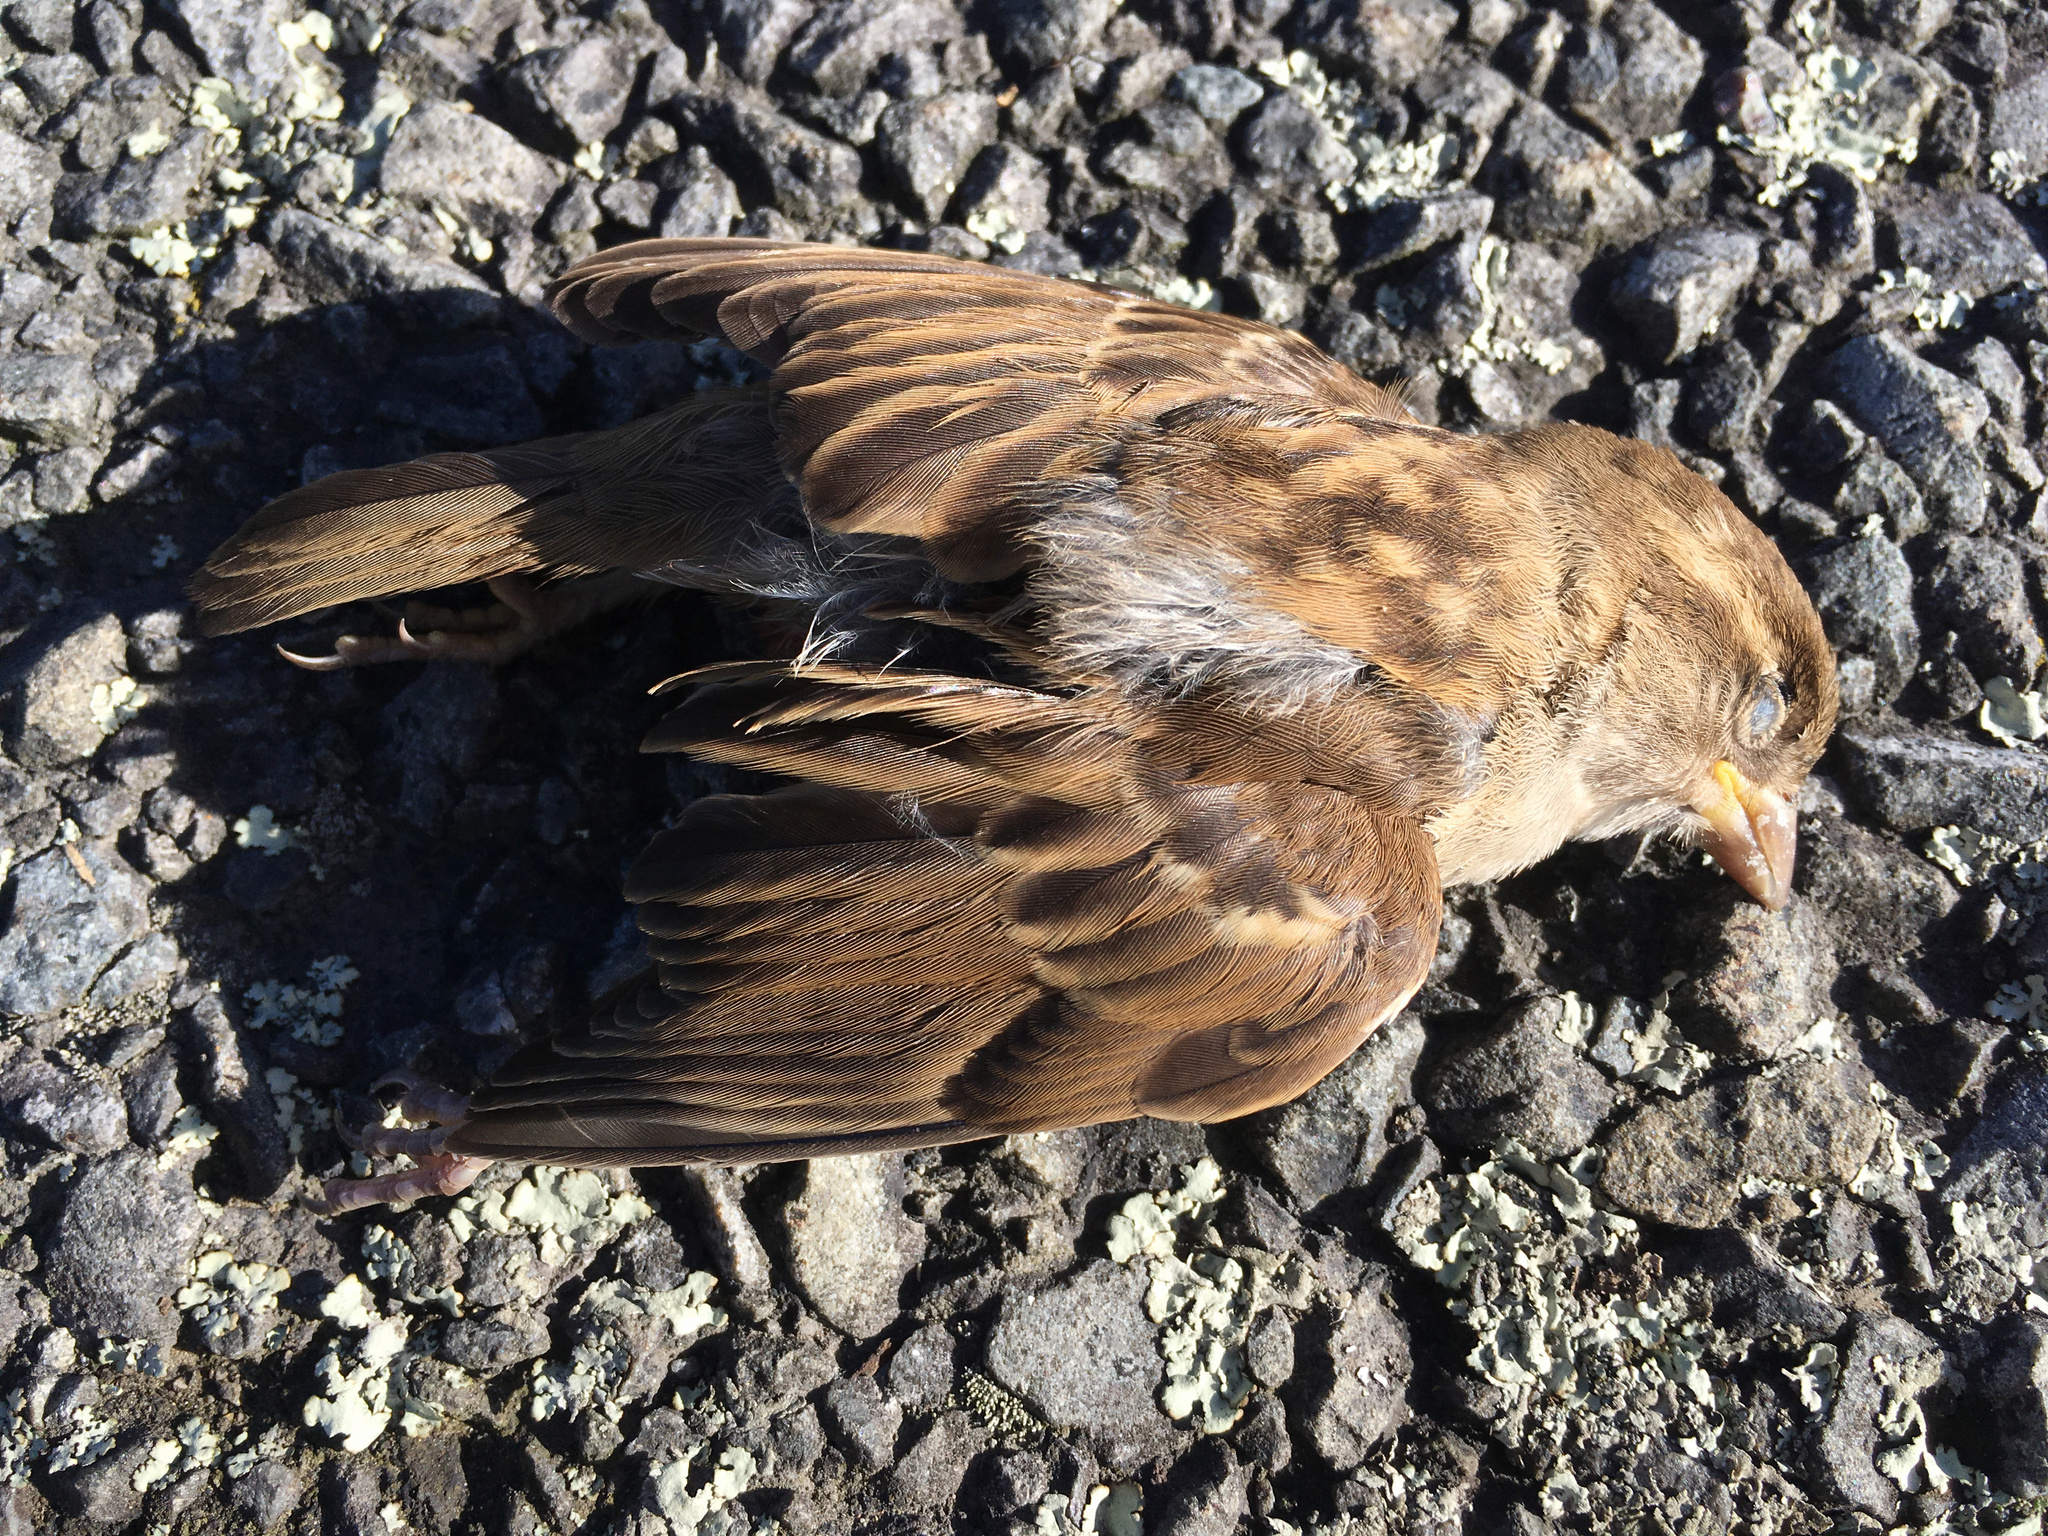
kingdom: Animalia
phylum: Chordata
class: Aves
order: Passeriformes
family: Passeridae
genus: Passer
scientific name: Passer domesticus
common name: House sparrow
